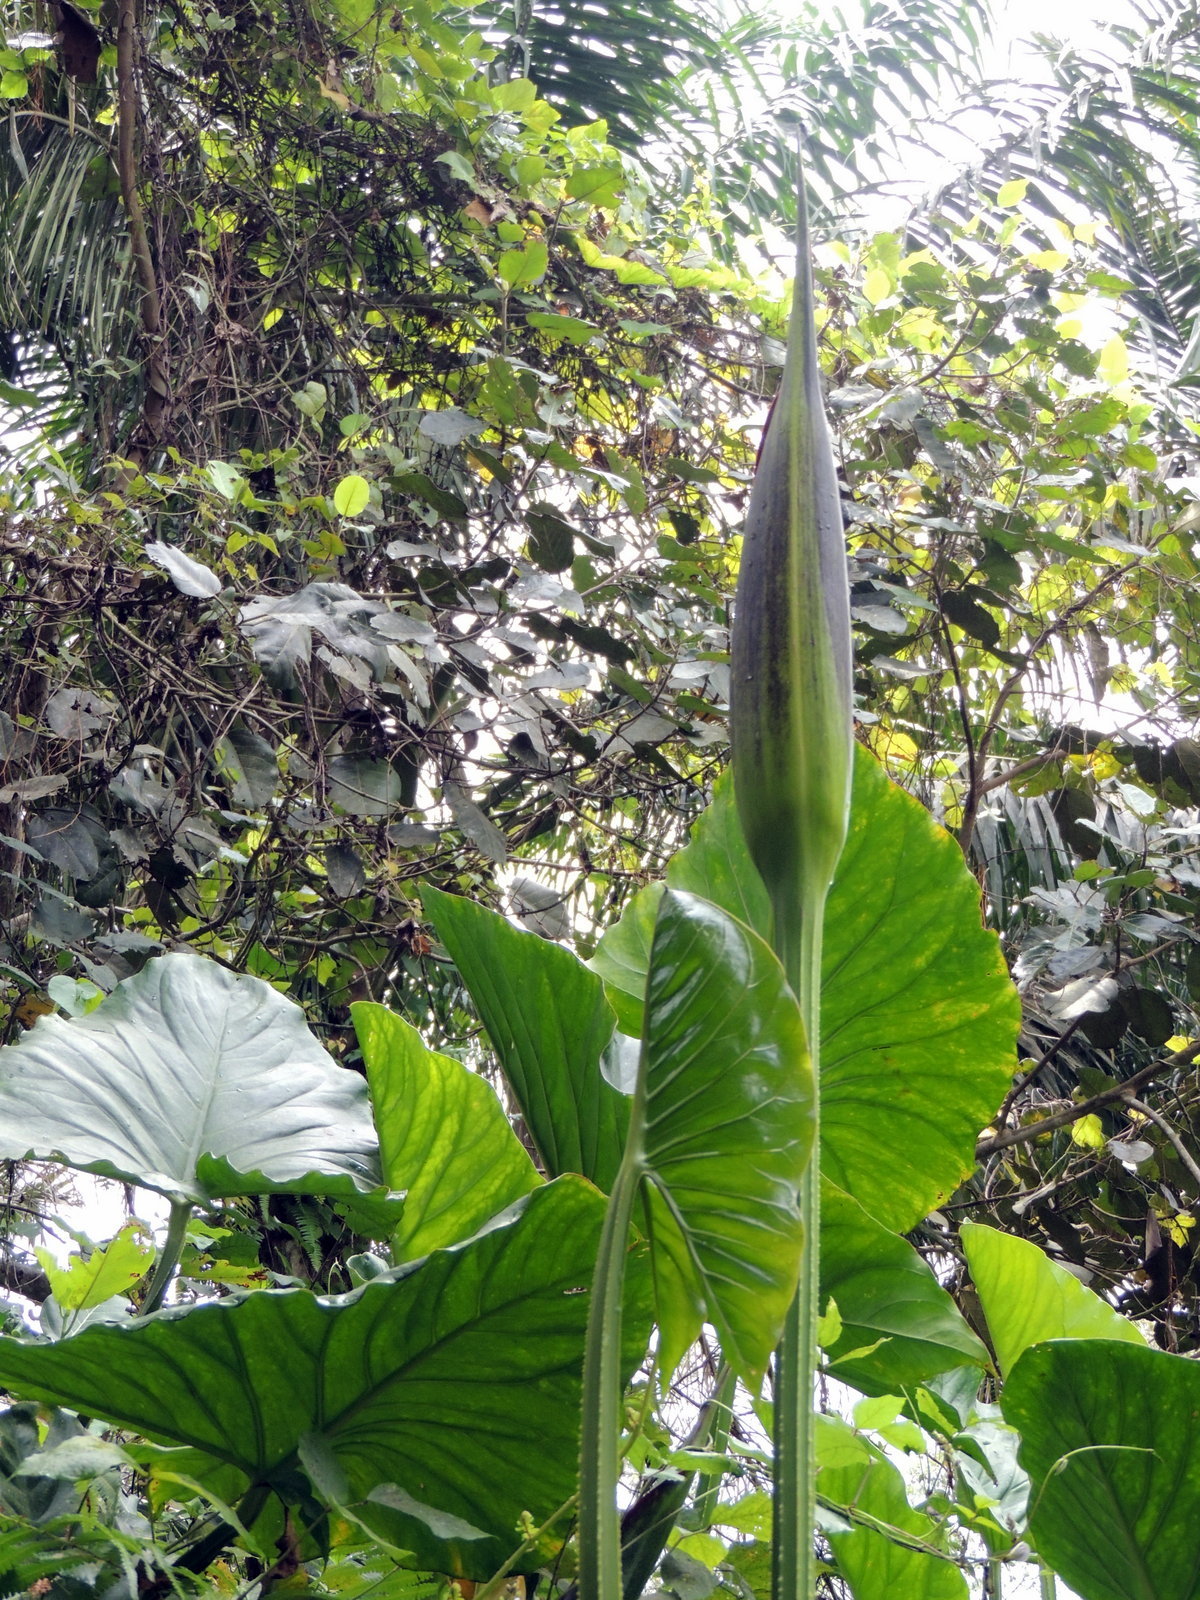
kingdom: Plantae
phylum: Tracheophyta
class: Liliopsida
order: Alismatales
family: Araceae
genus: Lasimorpha
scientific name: Lasimorpha senegalensis
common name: Swamp arum
